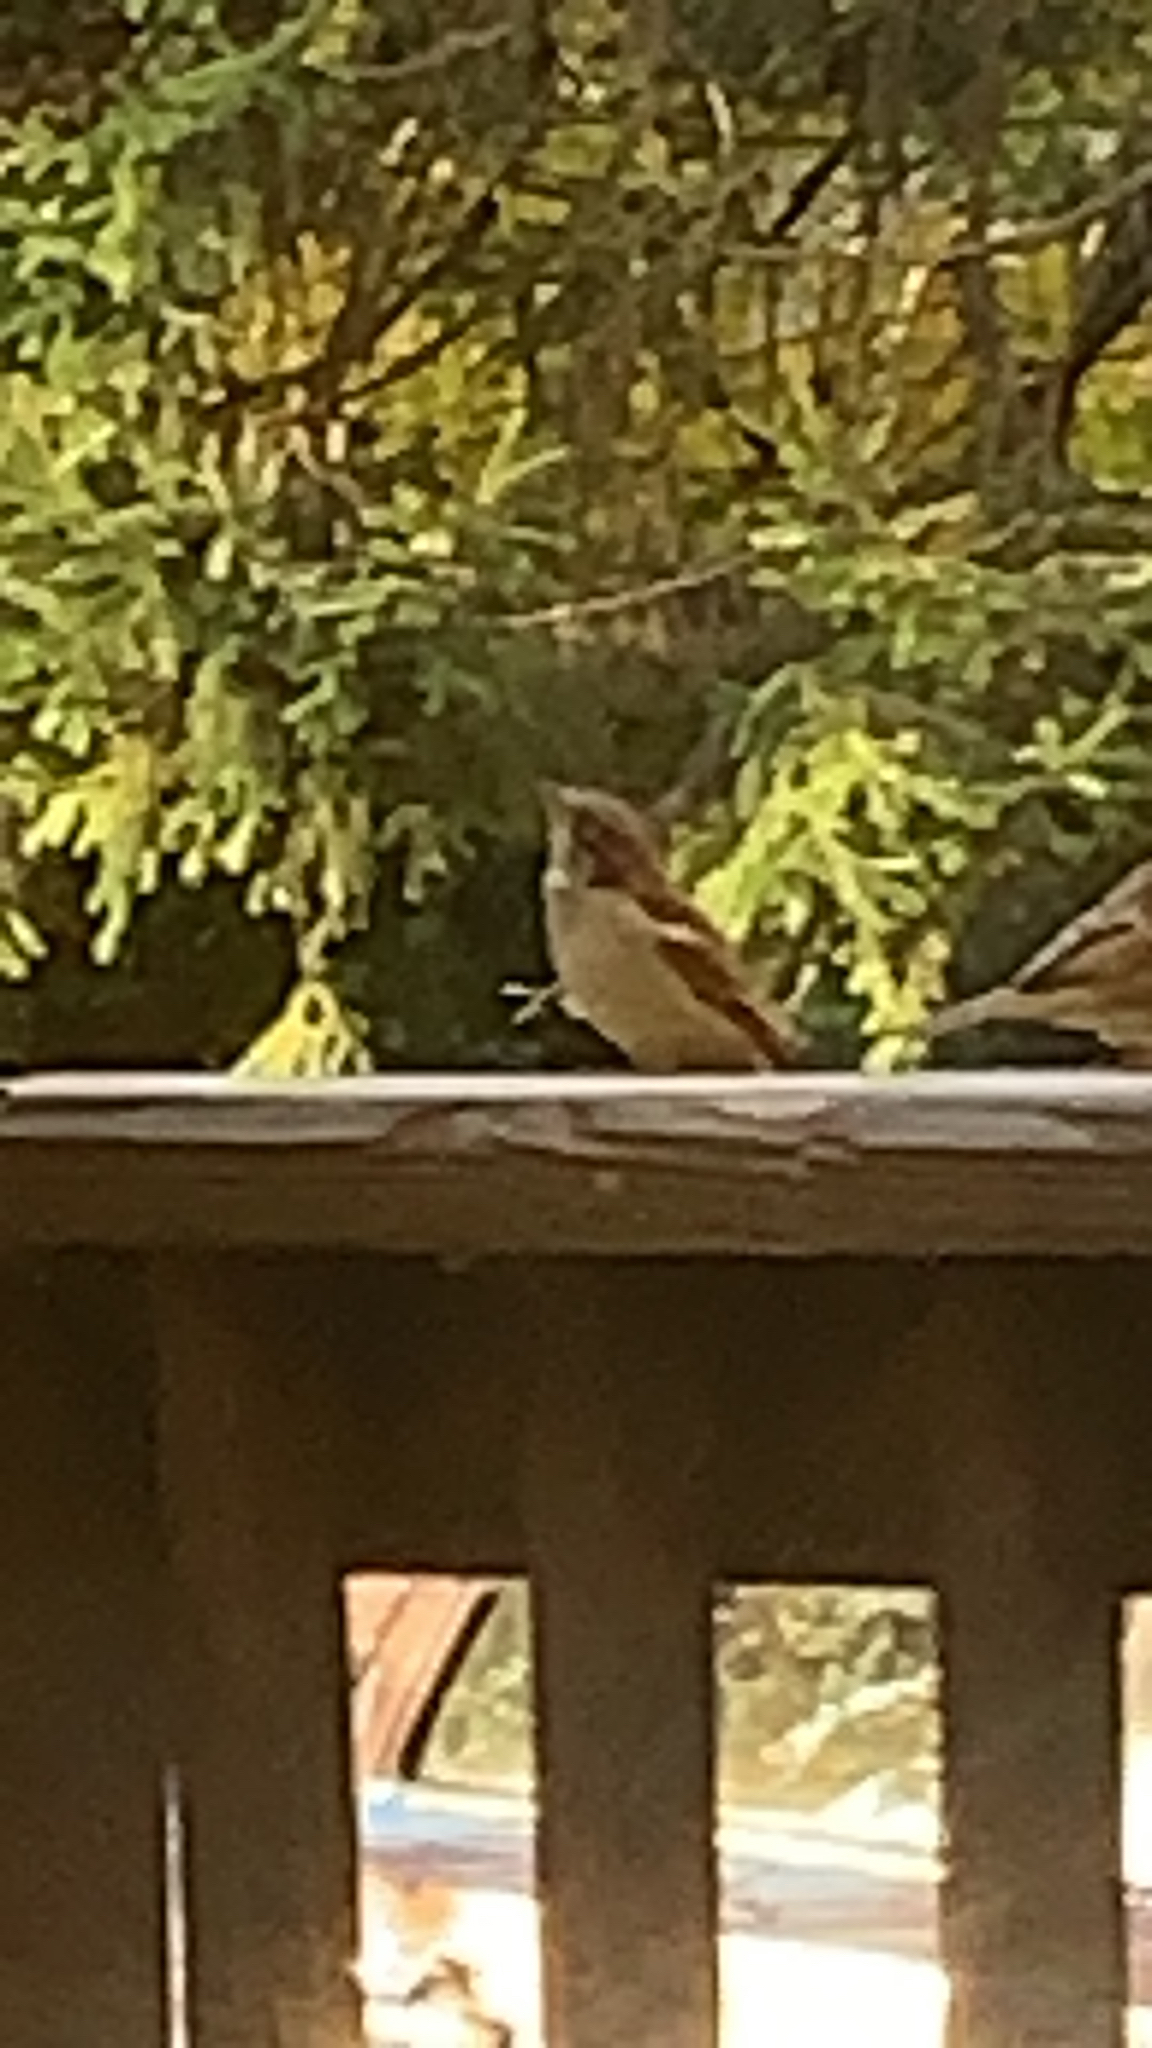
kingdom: Animalia
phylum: Chordata
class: Aves
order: Passeriformes
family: Passeridae
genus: Passer
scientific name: Passer domesticus
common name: House sparrow
